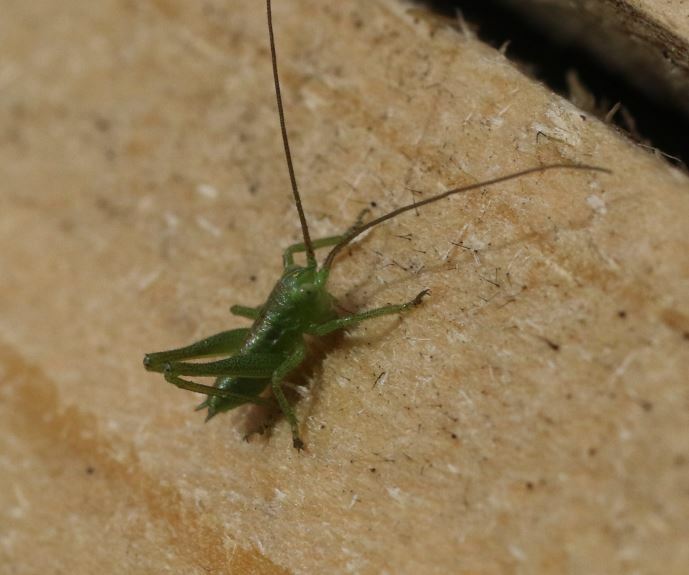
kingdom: Animalia
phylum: Arthropoda
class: Insecta
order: Orthoptera
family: Tettigoniidae
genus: Tettigonia
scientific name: Tettigonia viridissima
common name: Great green bush-cricket
